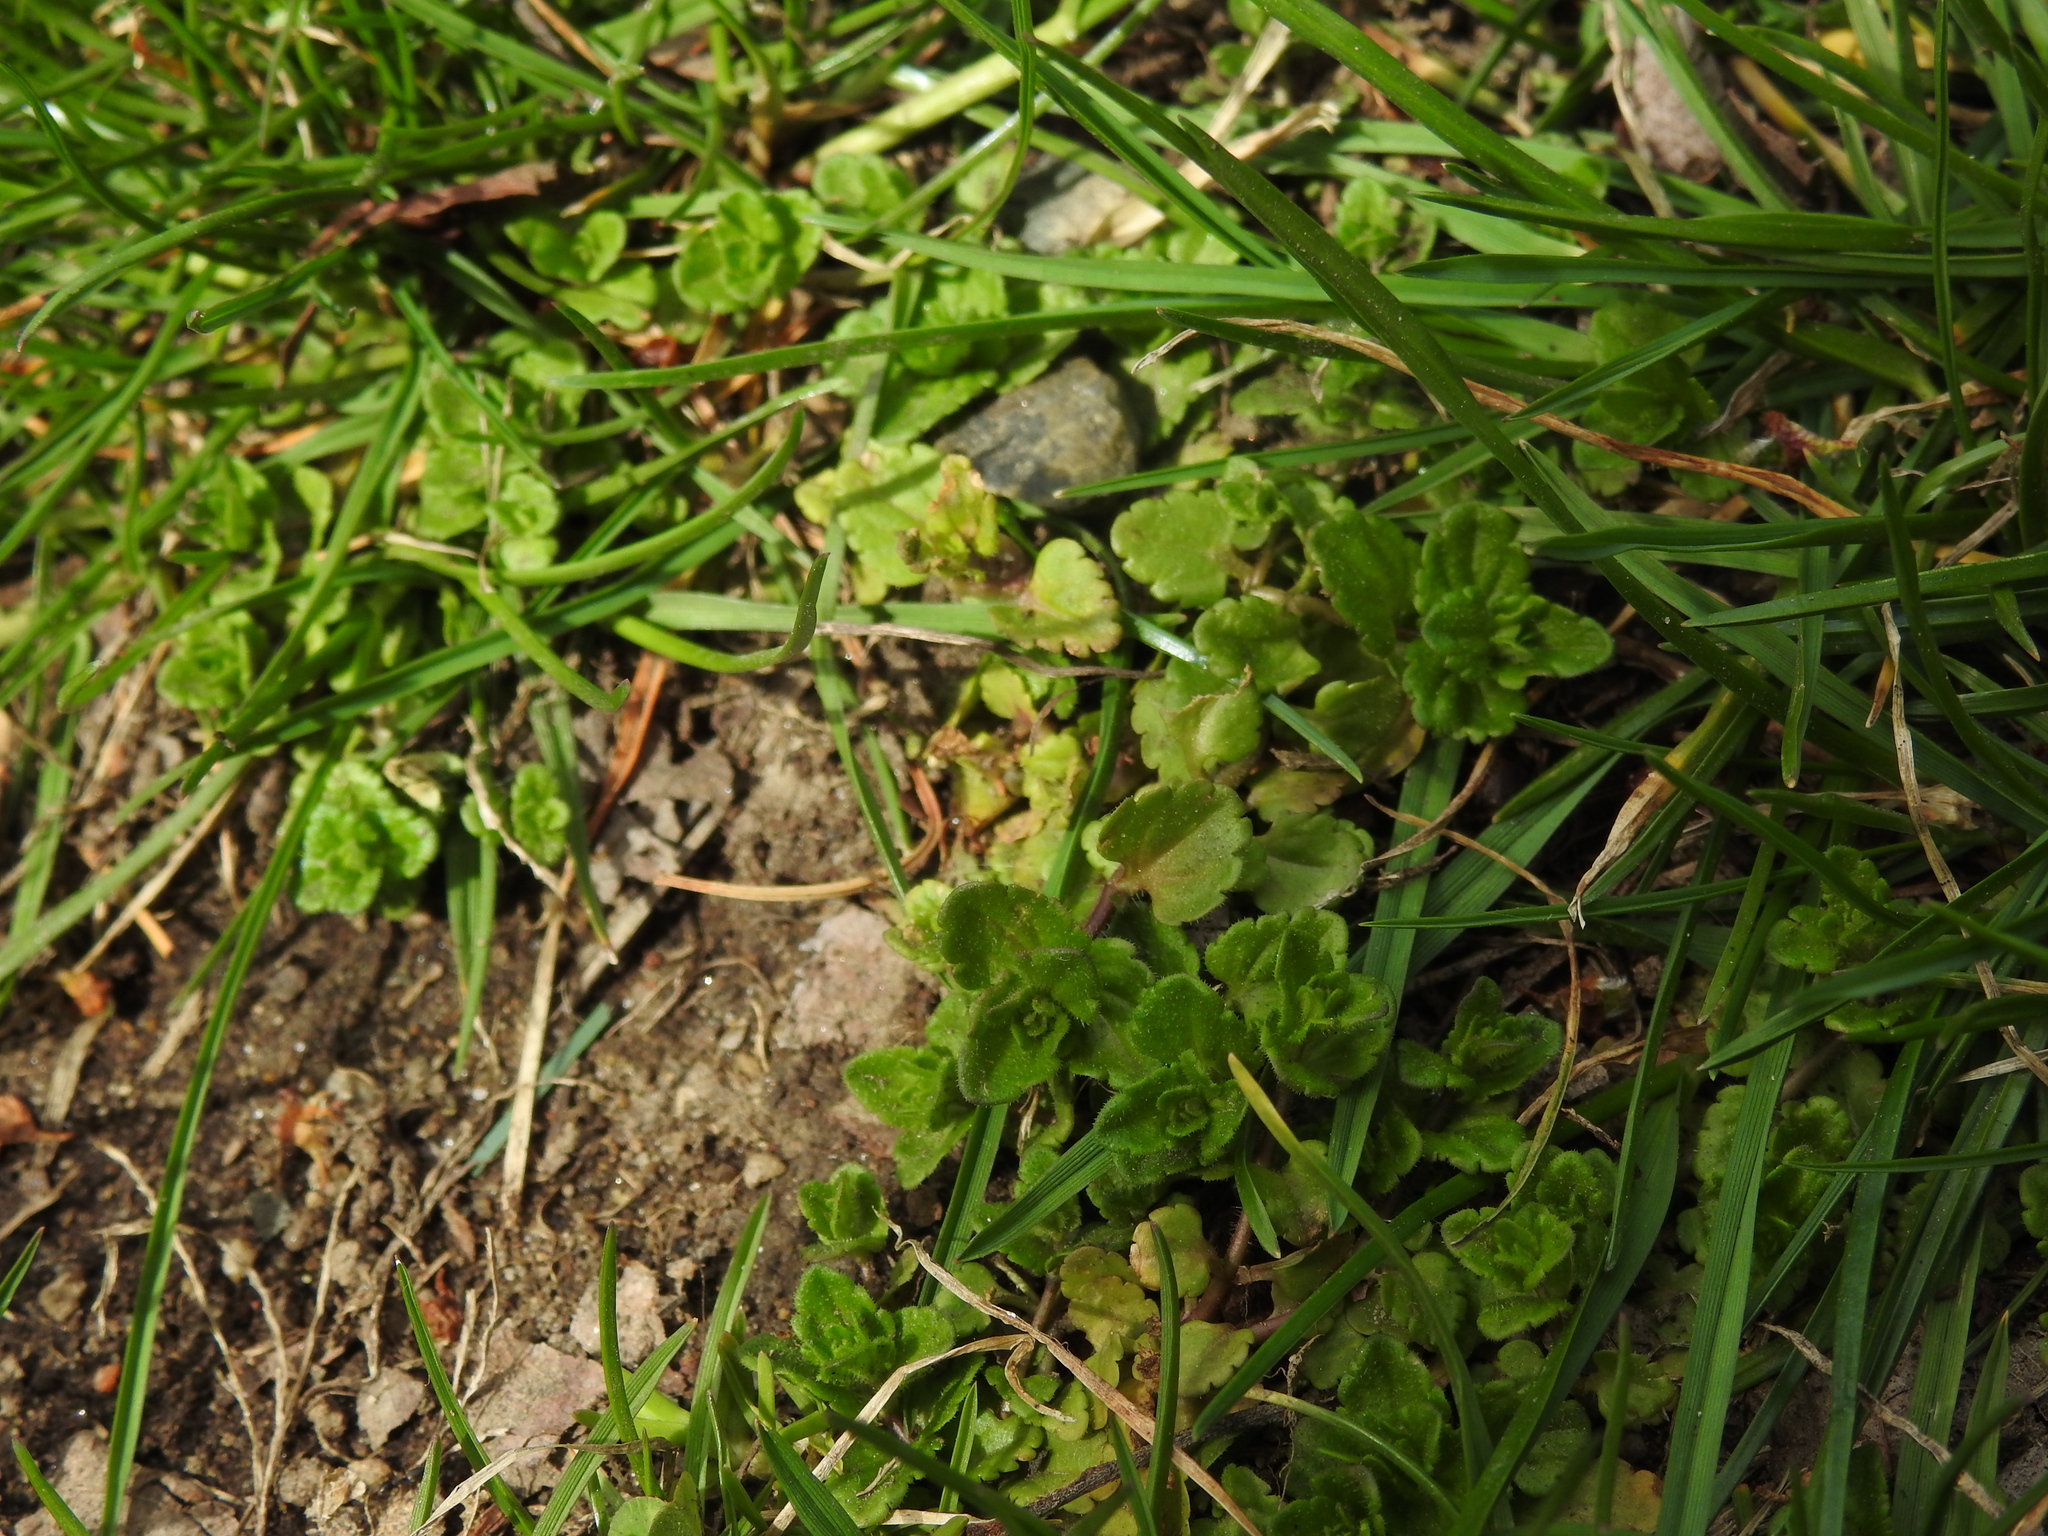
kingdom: Plantae
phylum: Tracheophyta
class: Magnoliopsida
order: Lamiales
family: Plantaginaceae
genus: Veronica
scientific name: Veronica arvensis
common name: Corn speedwell
